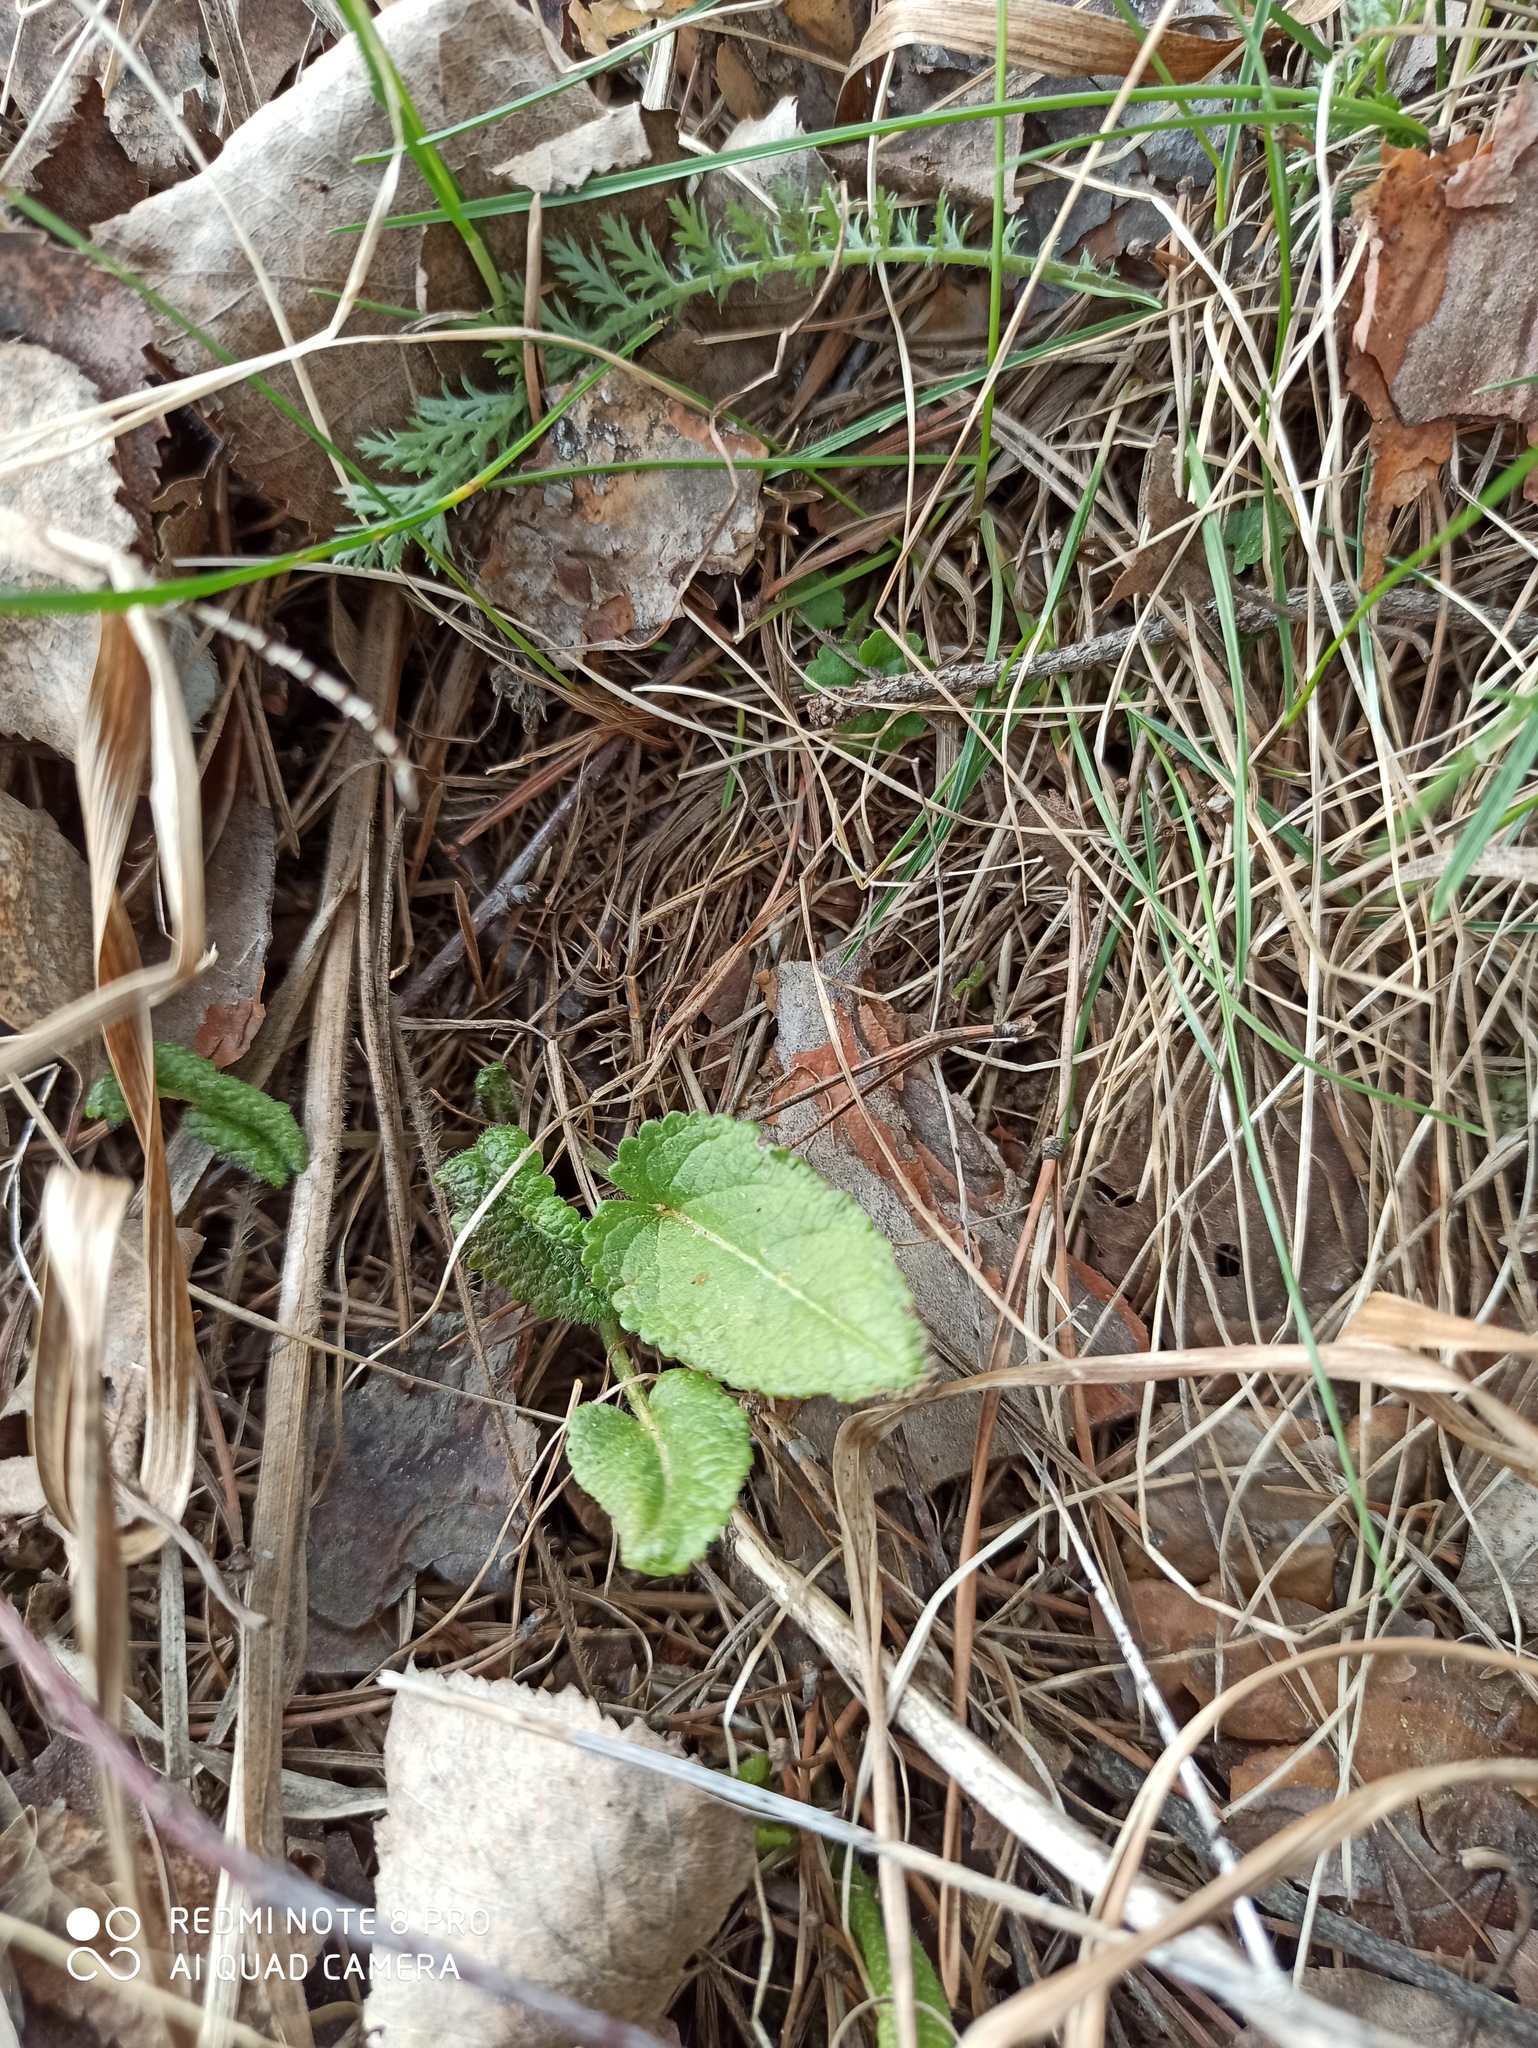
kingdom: Plantae
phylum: Tracheophyta
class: Magnoliopsida
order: Lamiales
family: Lamiaceae
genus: Betonica
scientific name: Betonica officinalis
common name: Bishop's-wort
